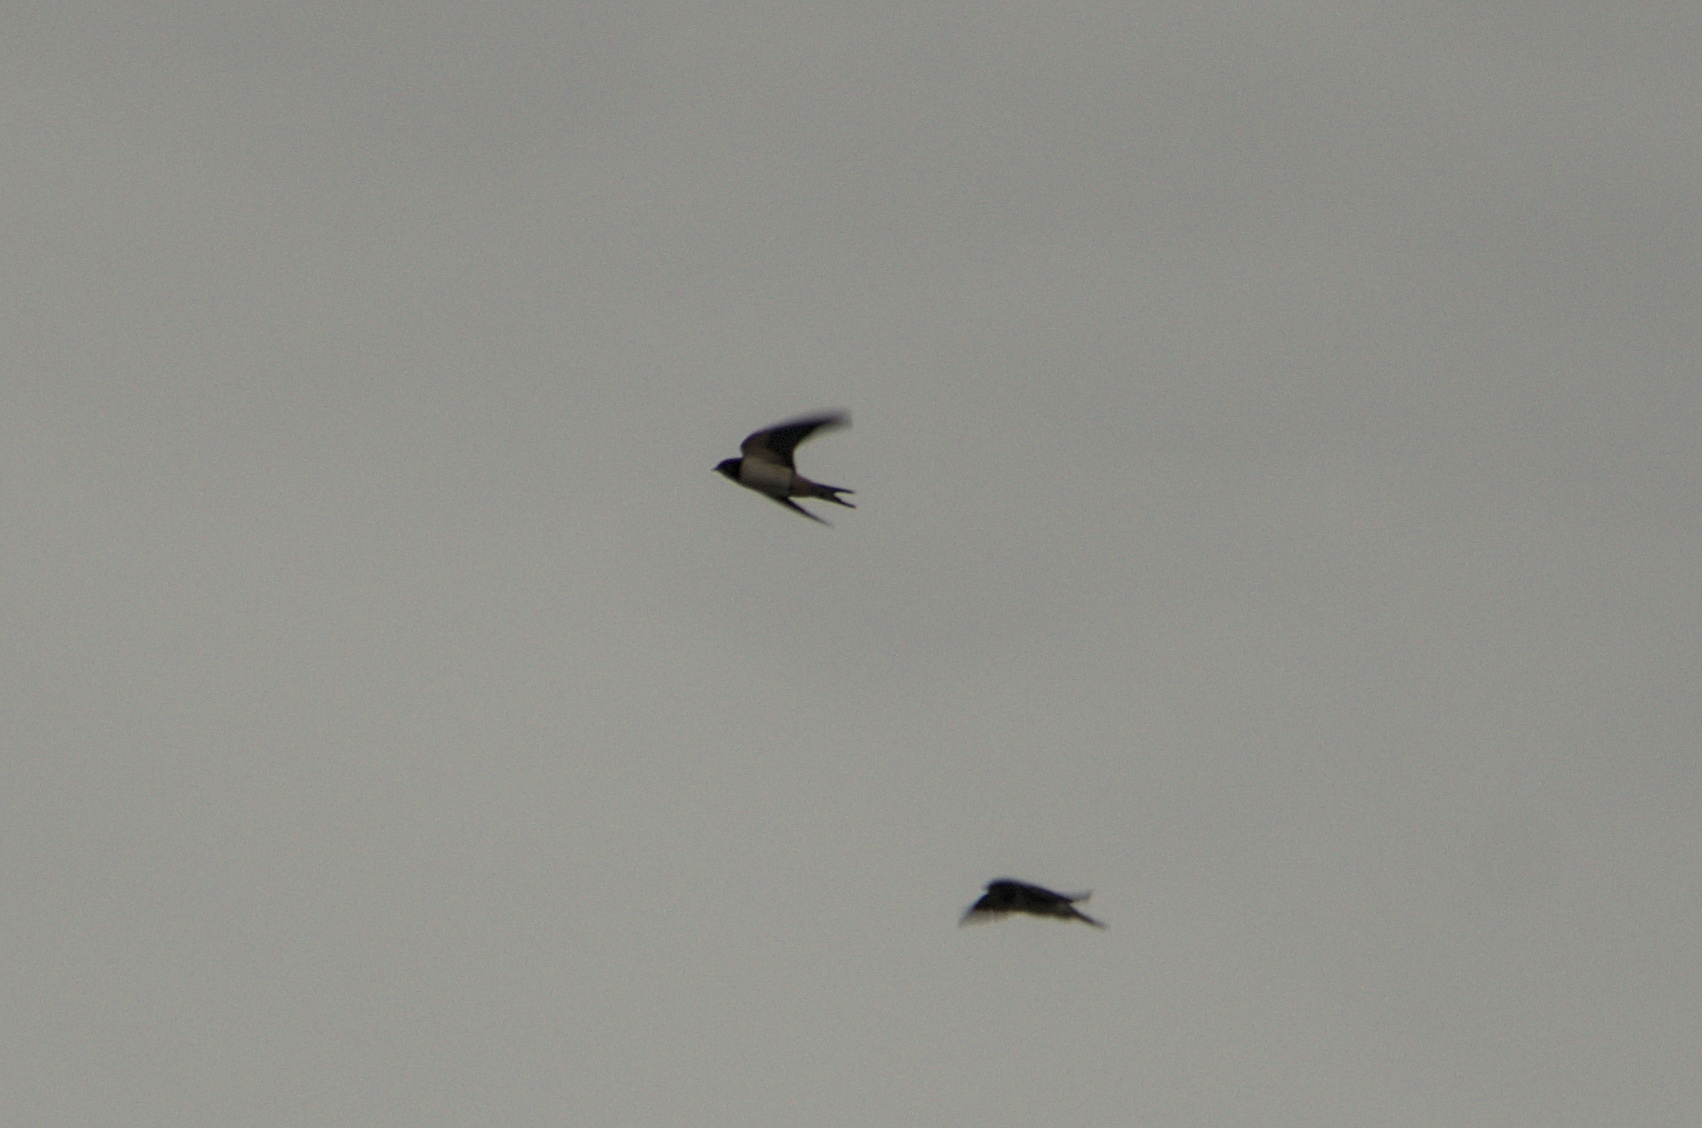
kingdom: Animalia
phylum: Chordata
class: Aves
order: Passeriformes
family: Hirundinidae
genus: Hirundo
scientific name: Hirundo rustica
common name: Barn swallow
